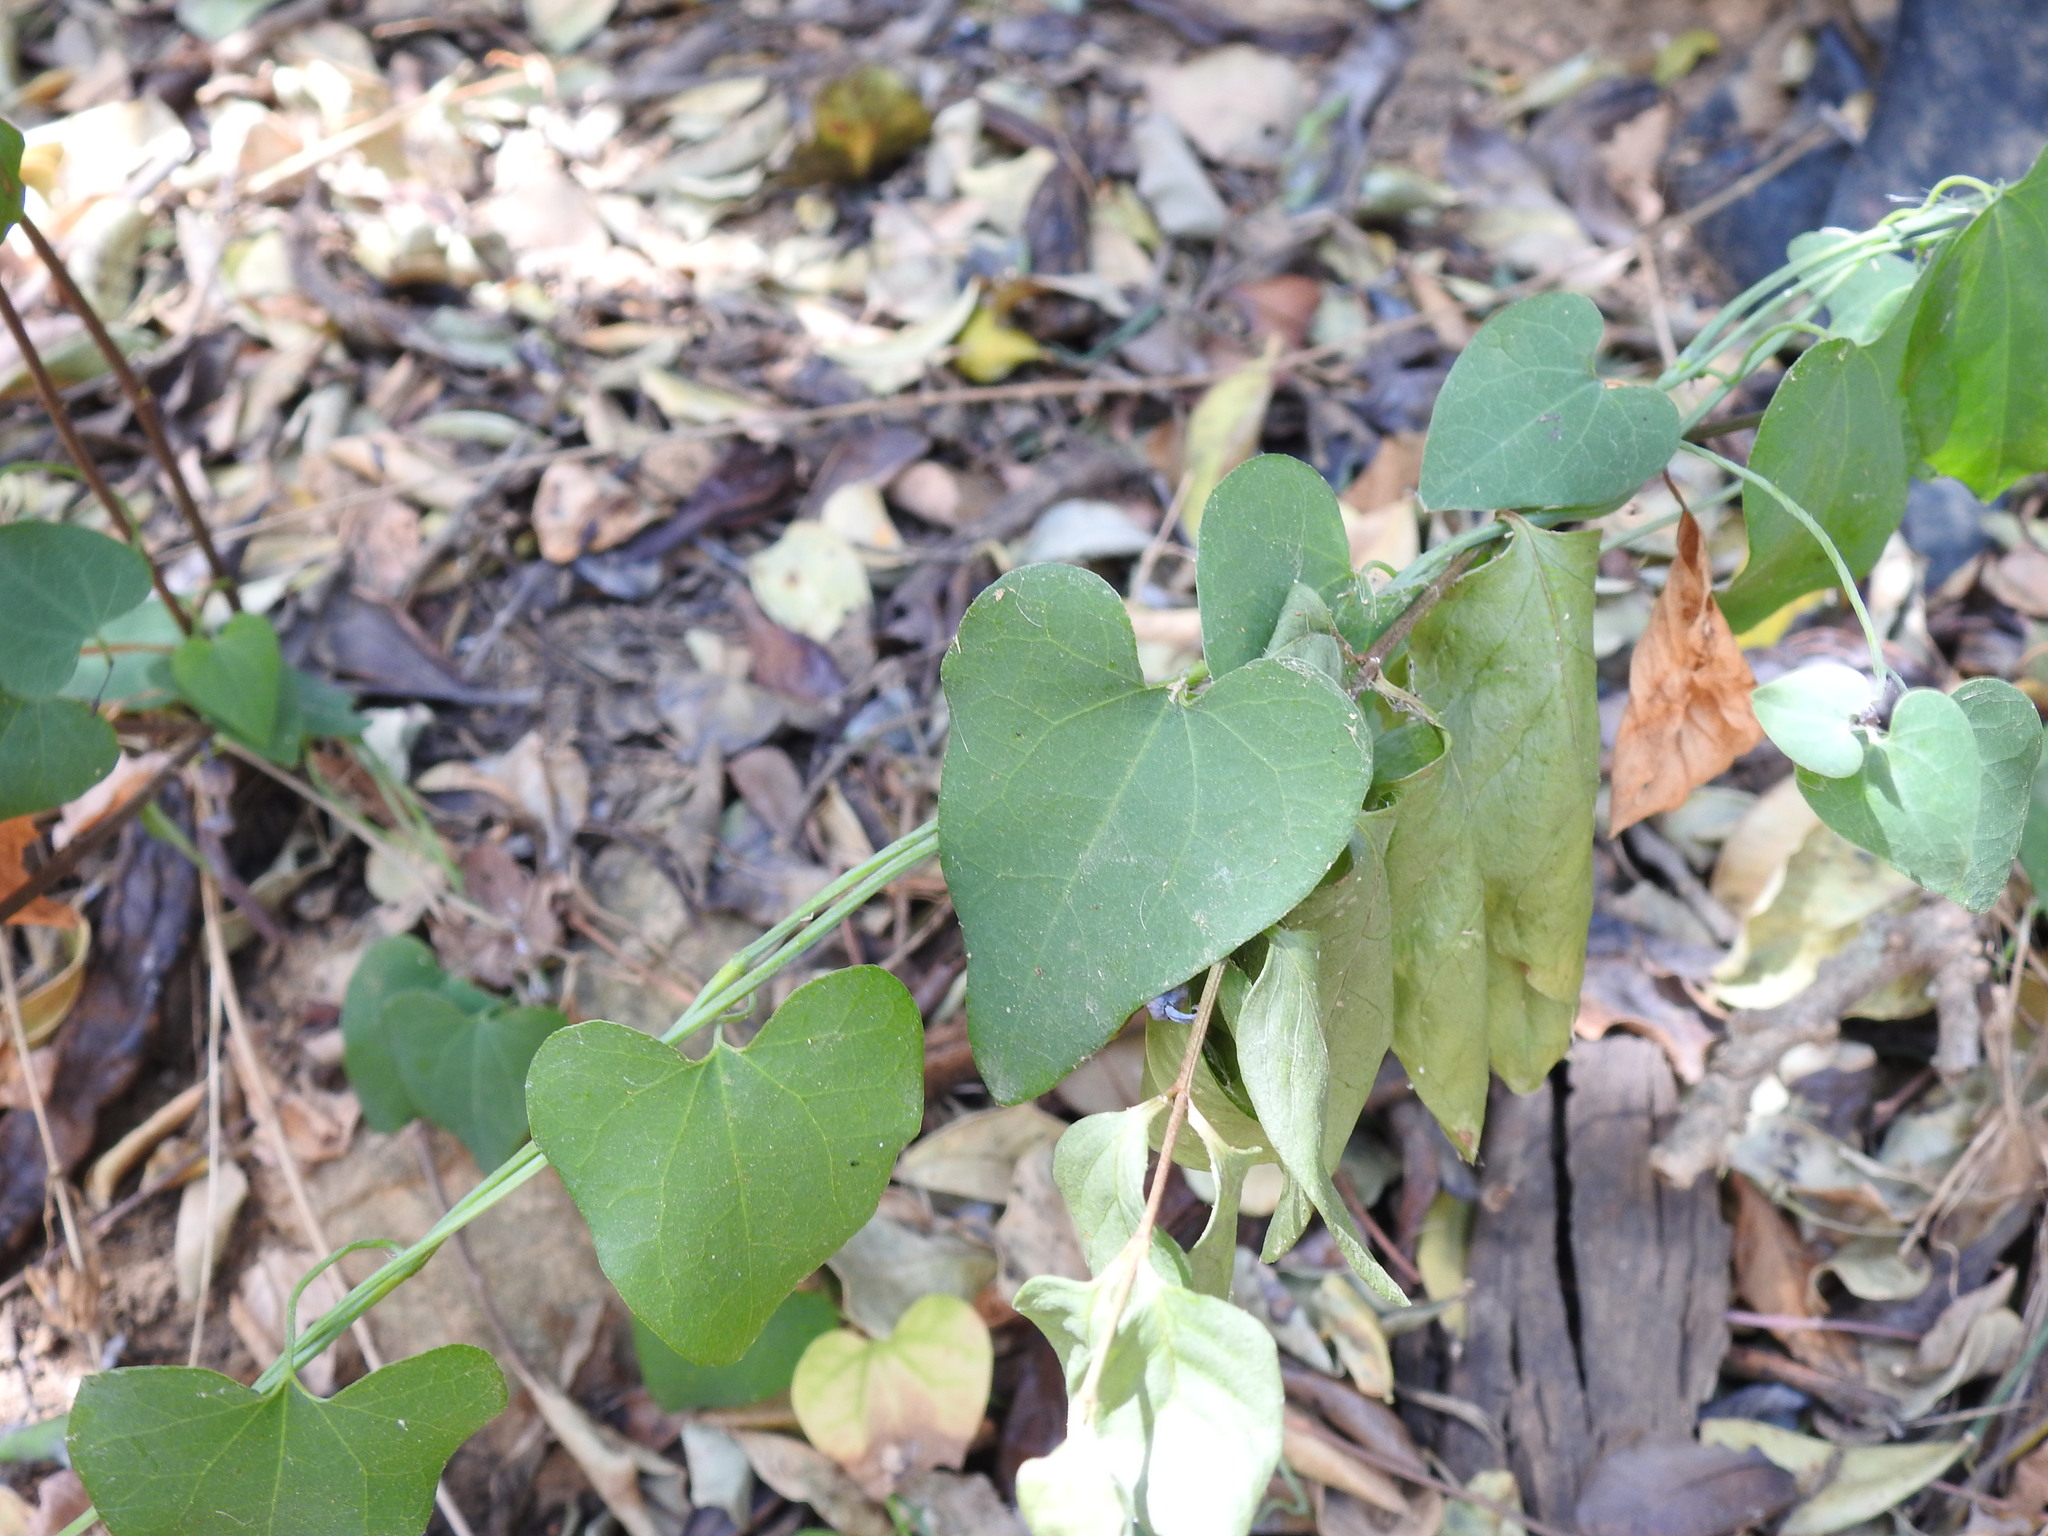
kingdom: Plantae
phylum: Tracheophyta
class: Magnoliopsida
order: Piperales
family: Aristolochiaceae
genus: Aristolochia
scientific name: Aristolochia baetica
